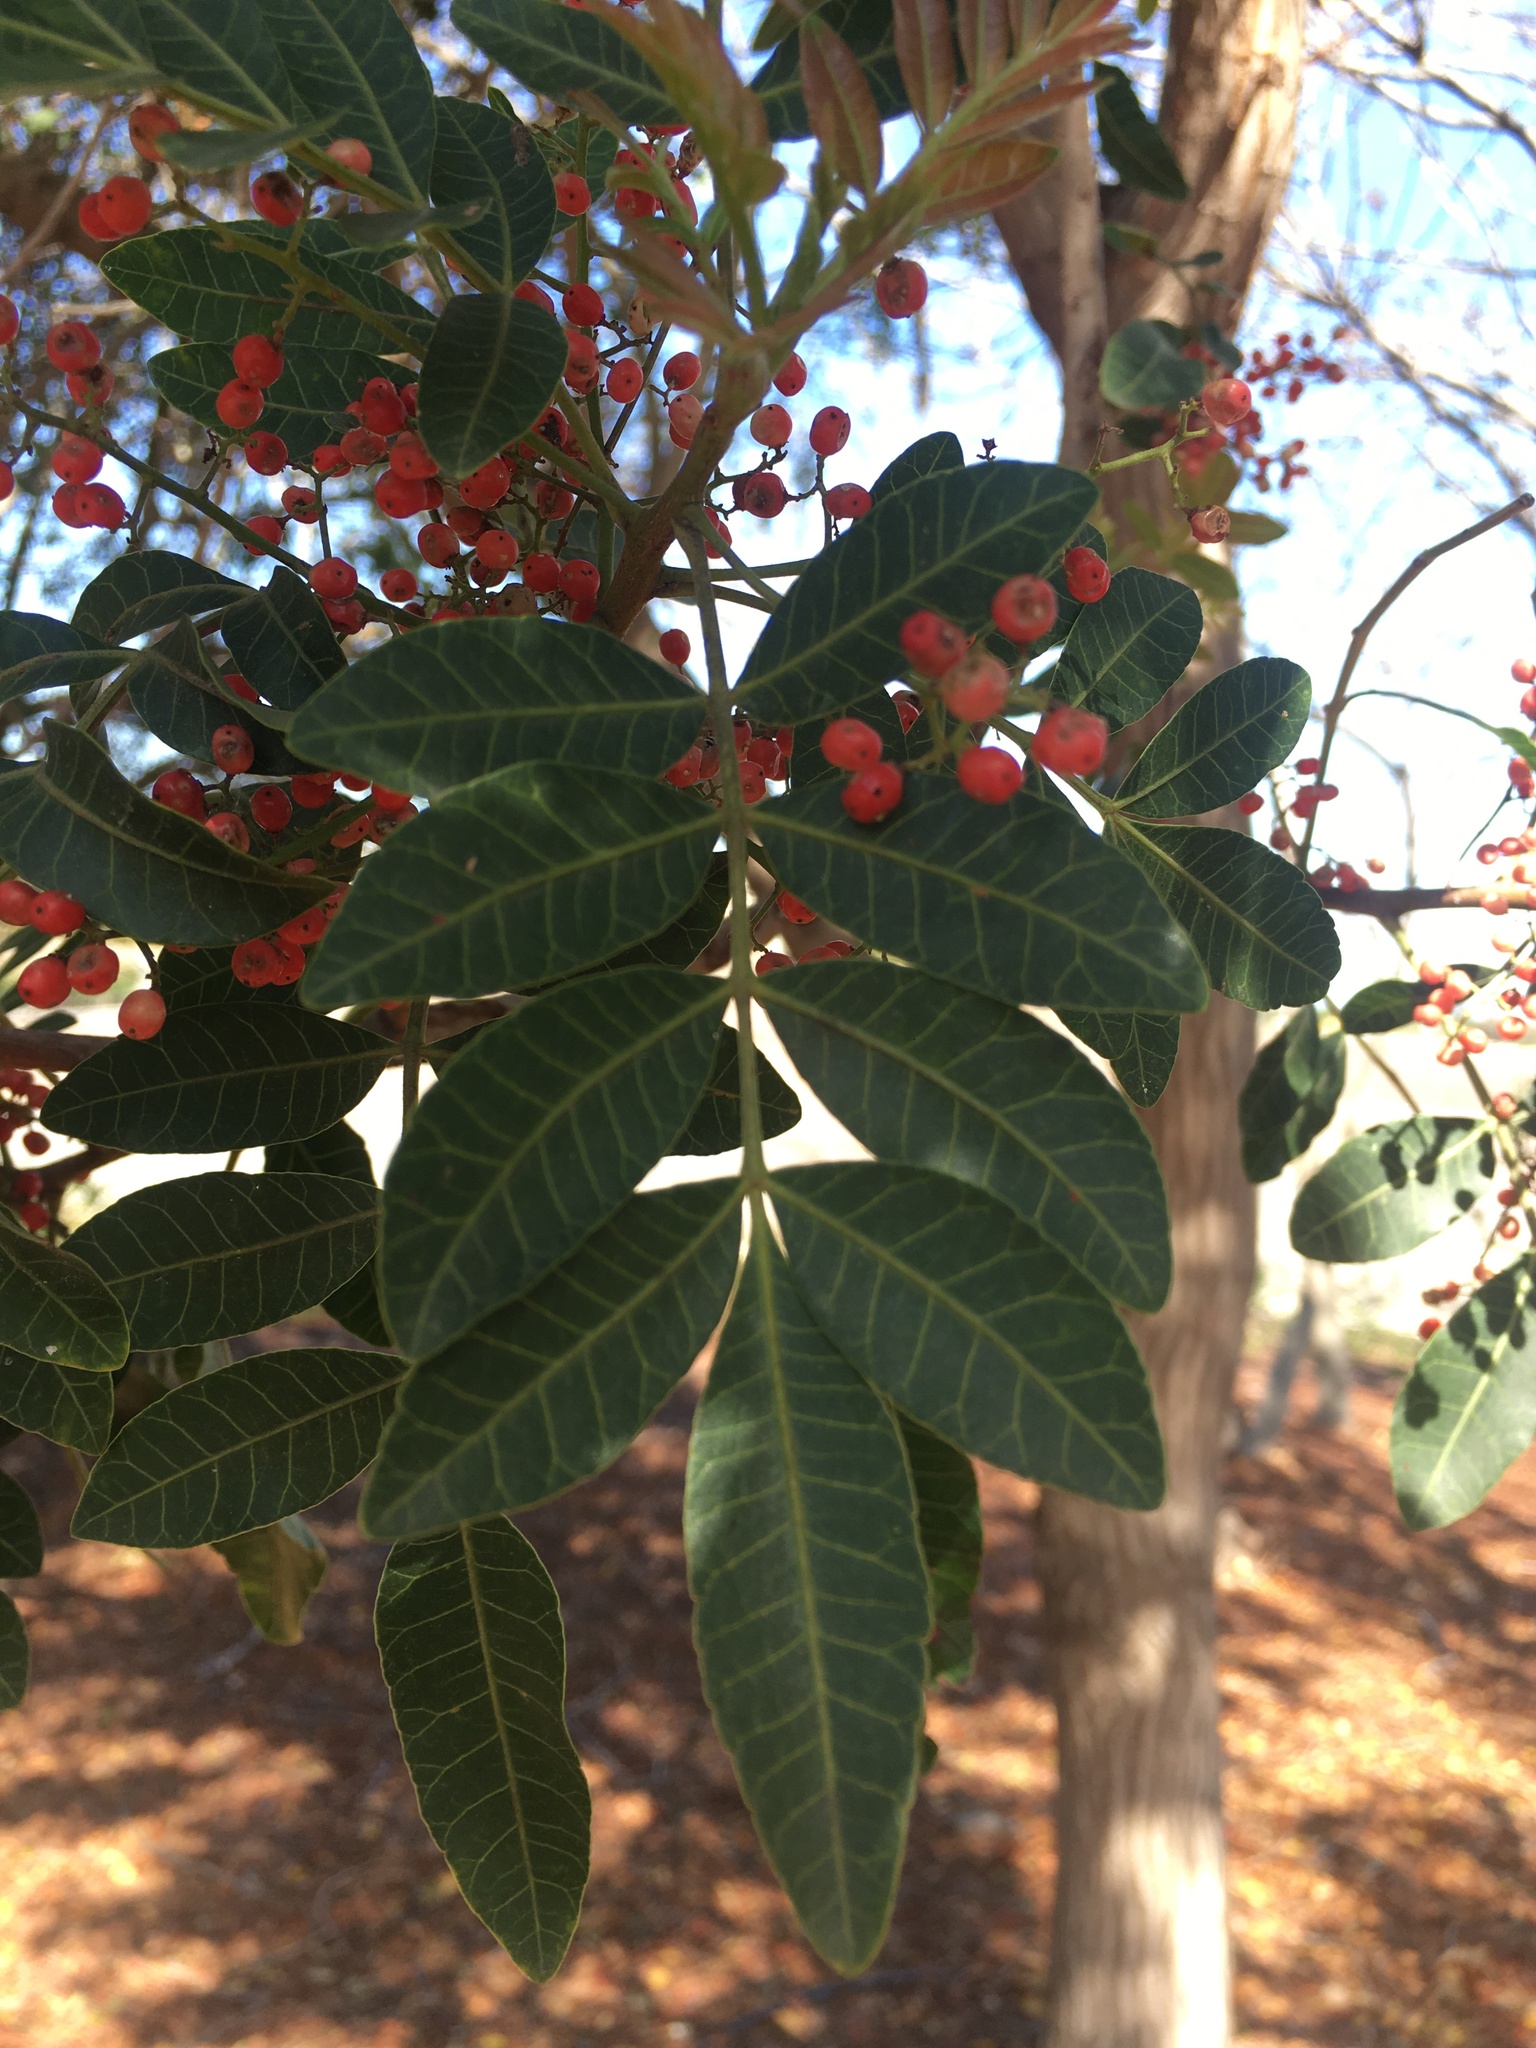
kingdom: Plantae
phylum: Tracheophyta
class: Magnoliopsida
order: Sapindales
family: Anacardiaceae
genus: Schinus
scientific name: Schinus terebinthifolia
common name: Brazilian peppertree
